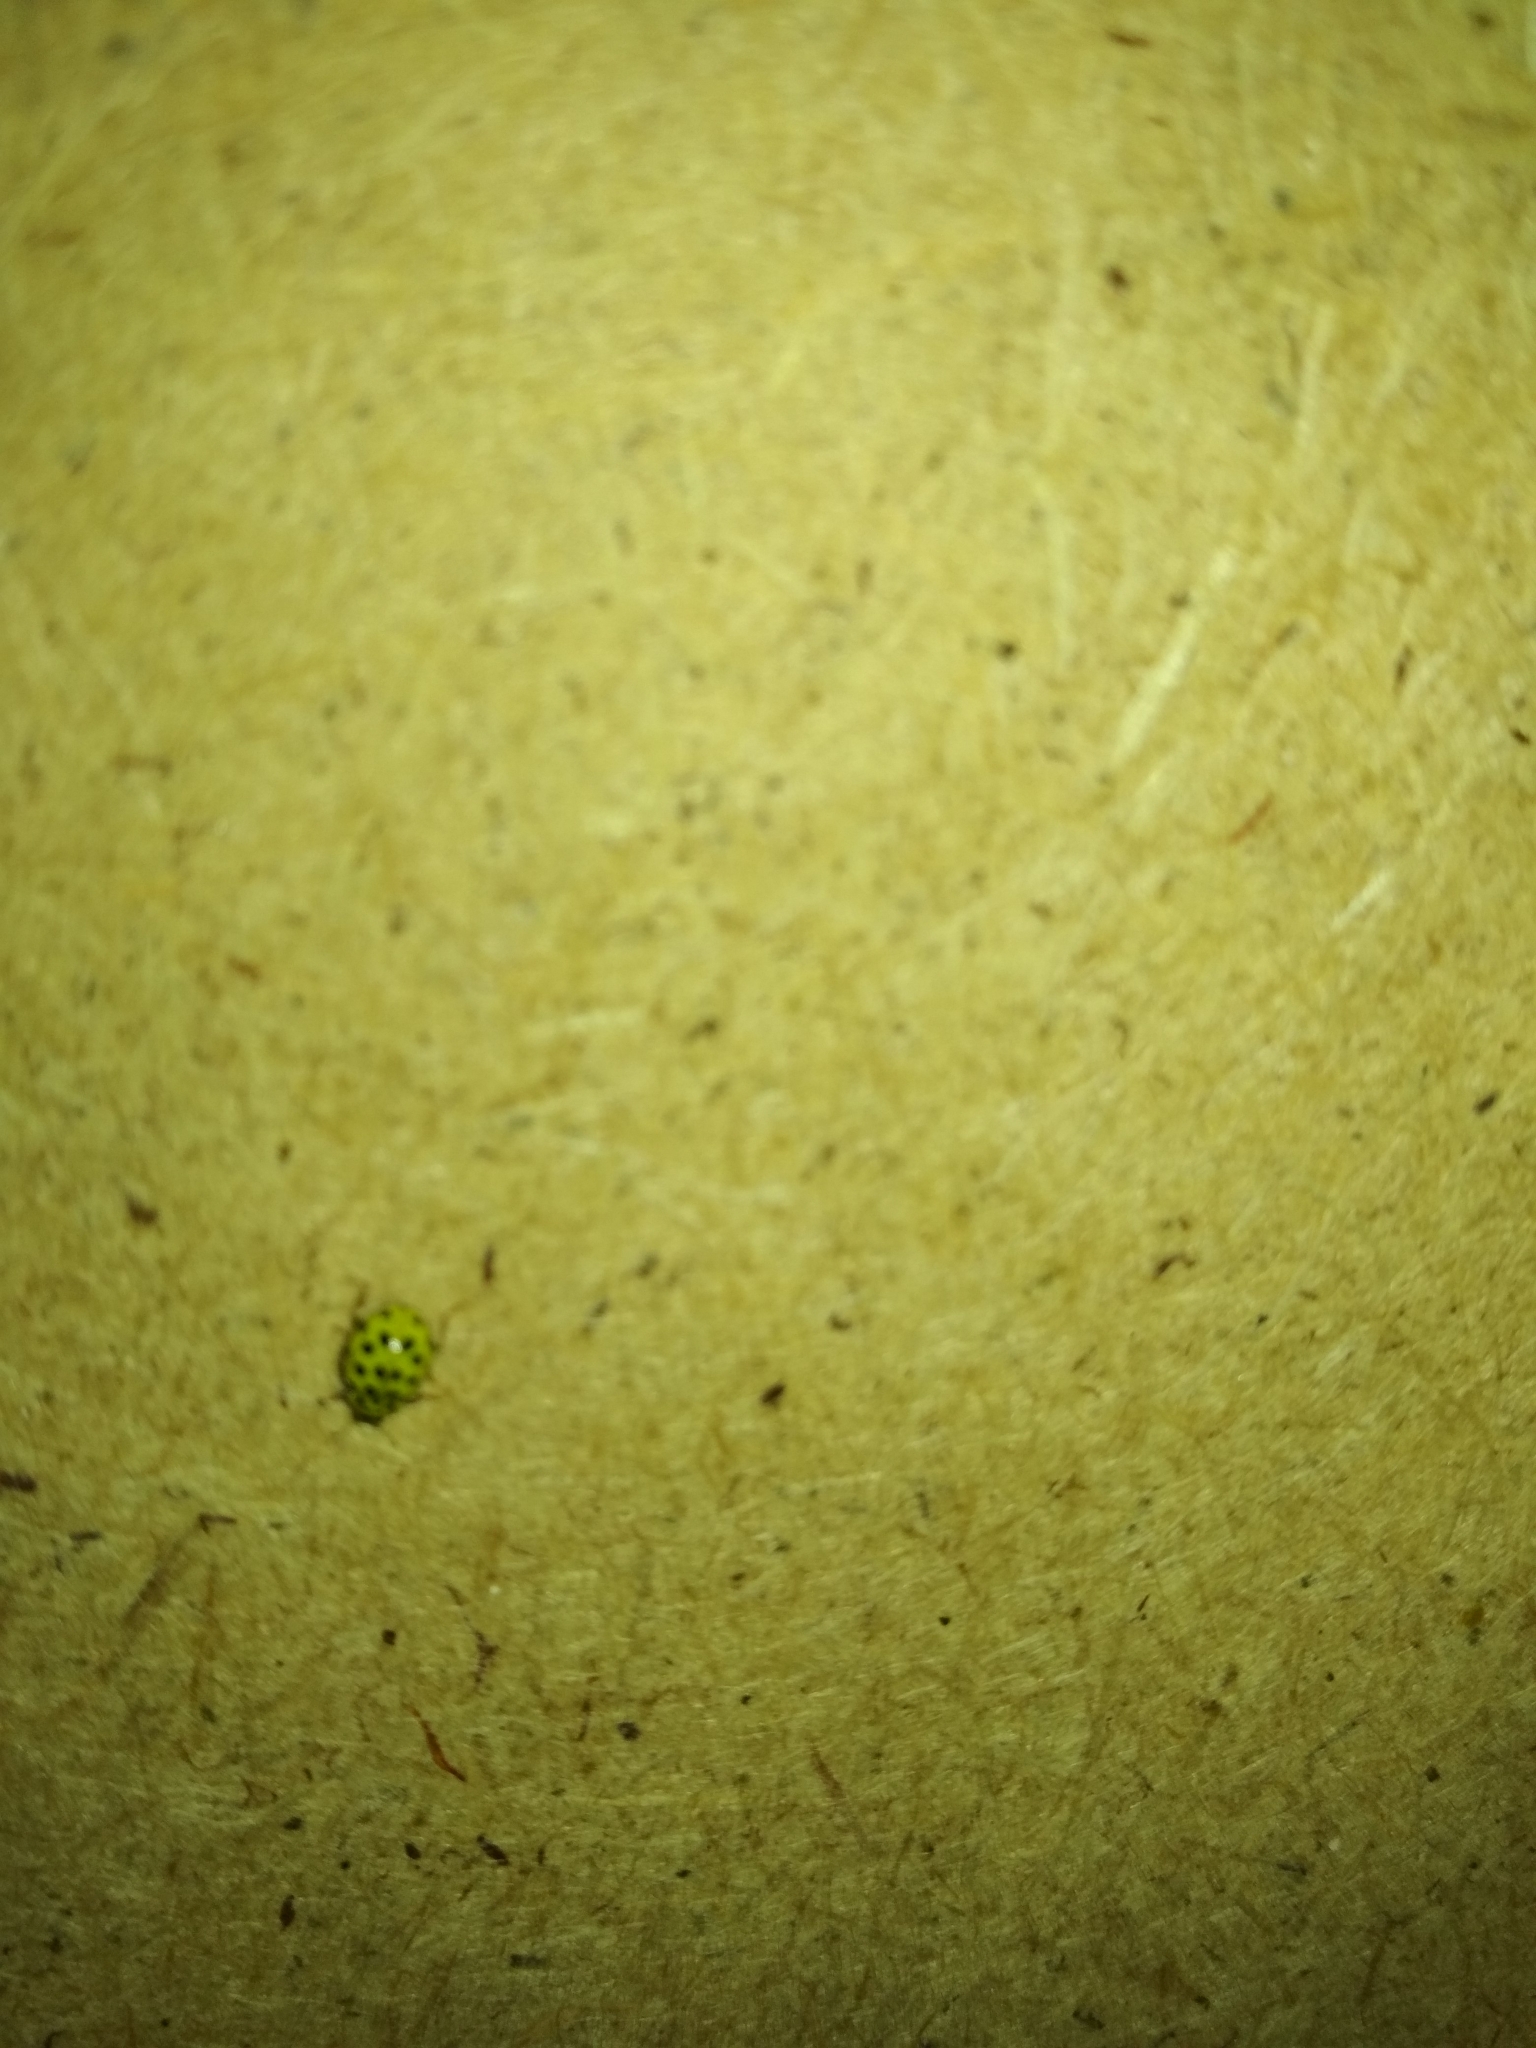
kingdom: Animalia
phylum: Arthropoda
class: Insecta
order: Coleoptera
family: Coccinellidae
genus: Psyllobora
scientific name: Psyllobora vigintiduopunctata
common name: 22-spot ladybird
